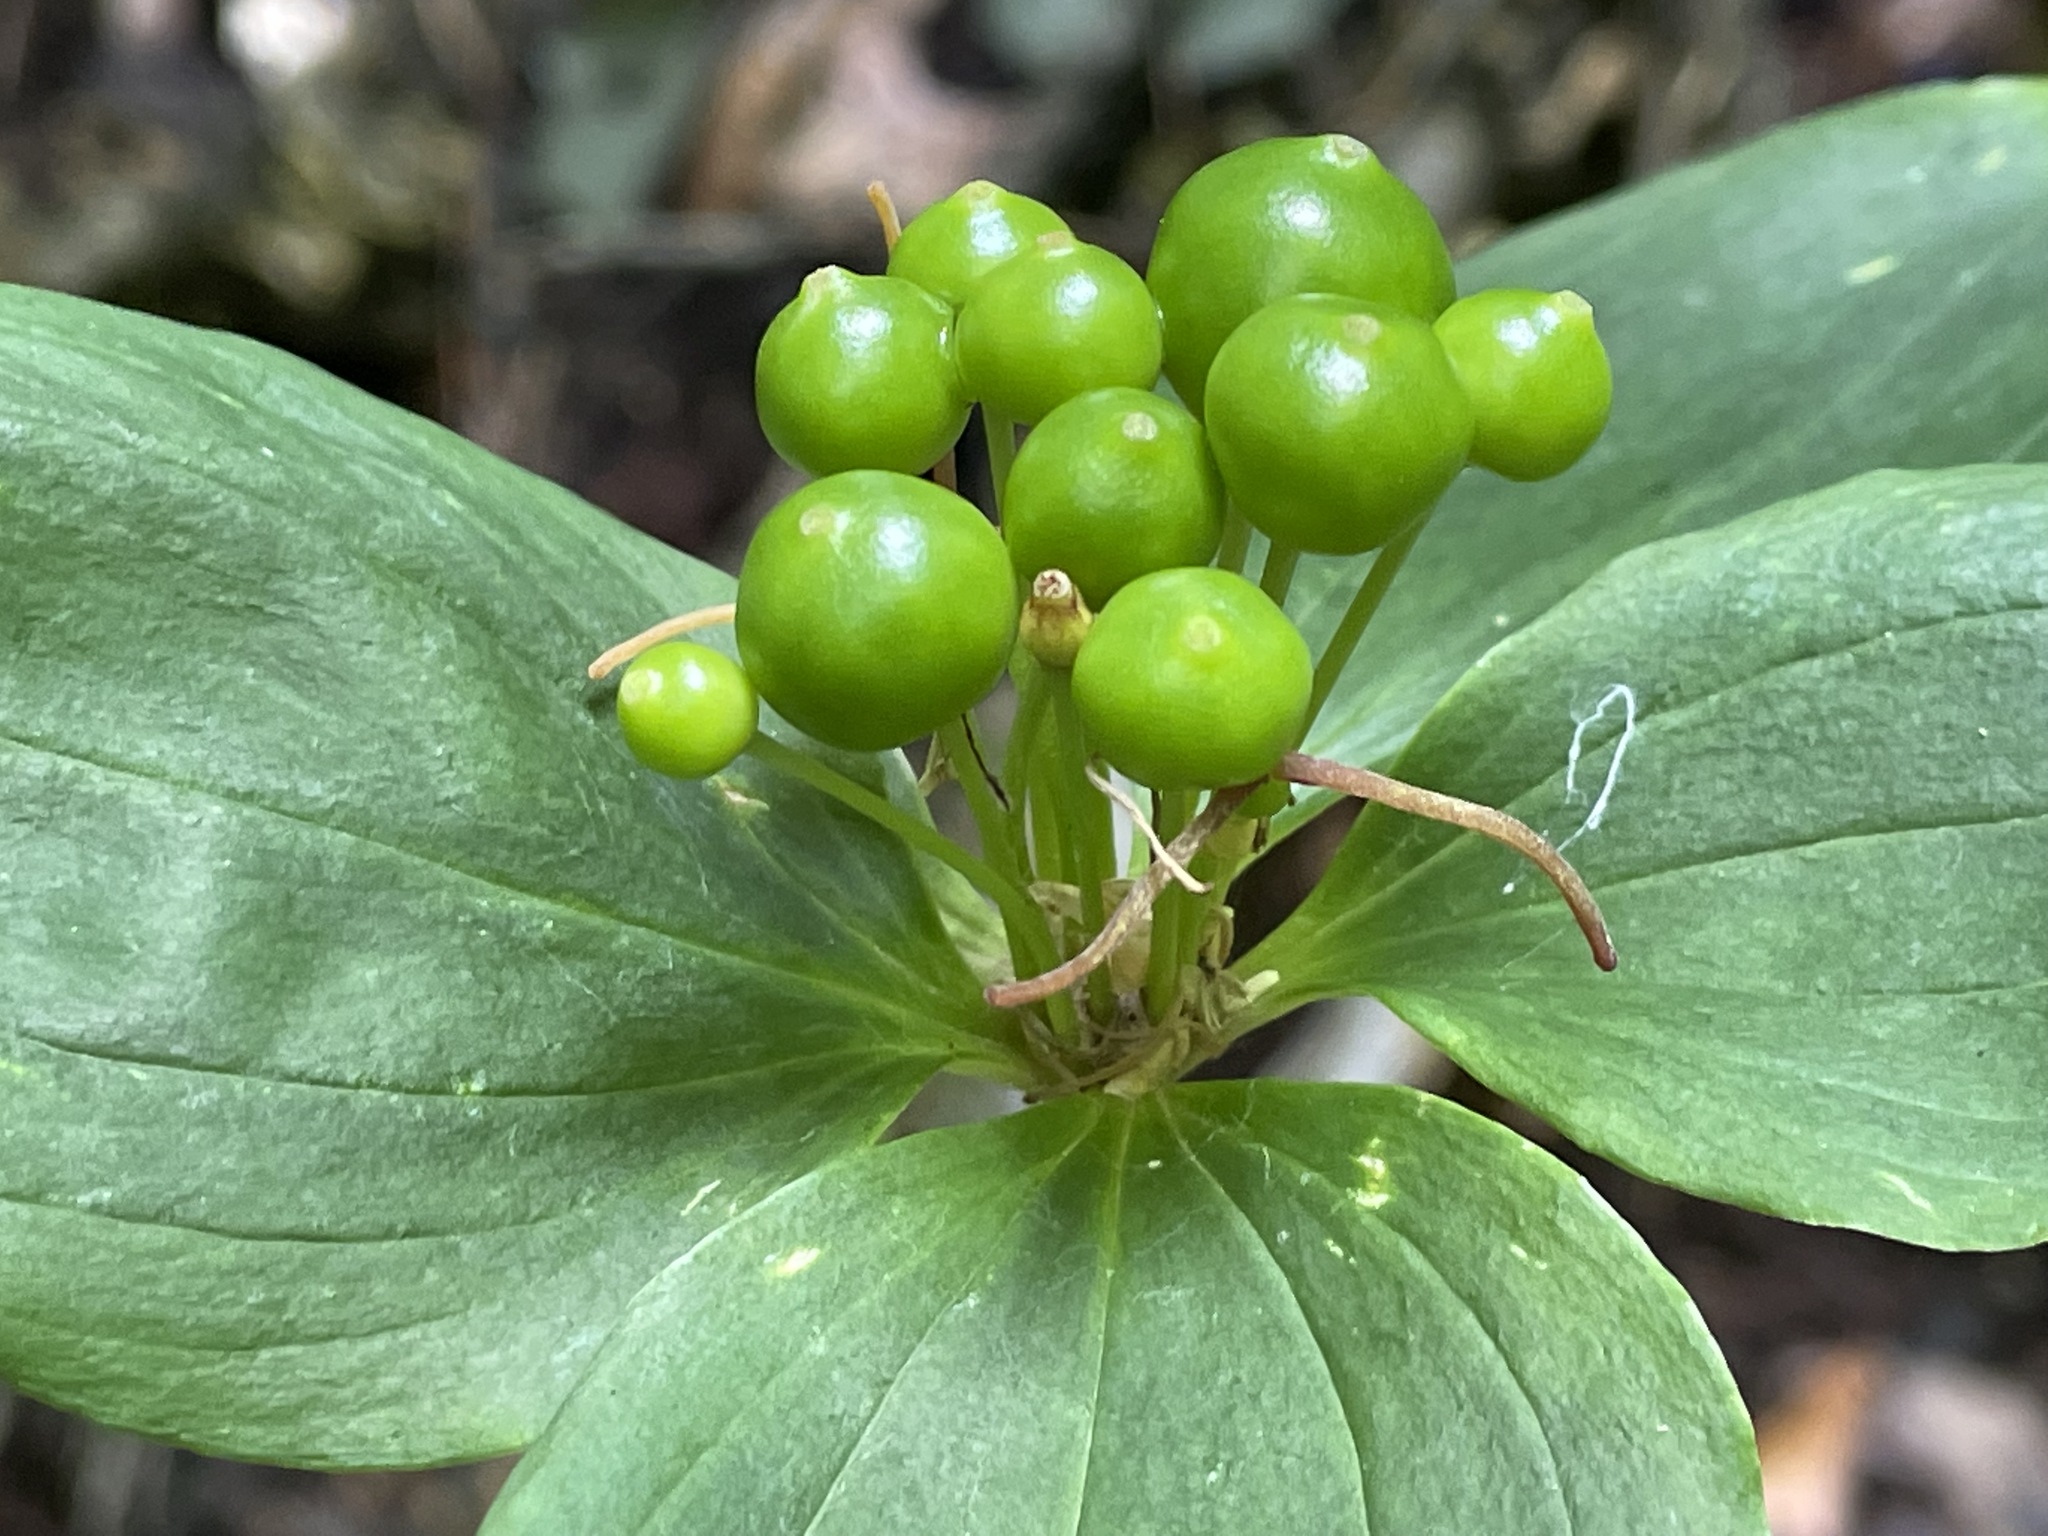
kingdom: Plantae
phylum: Tracheophyta
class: Liliopsida
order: Liliales
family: Liliaceae
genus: Medeola
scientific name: Medeola virginiana
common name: Indian cucumber-root
